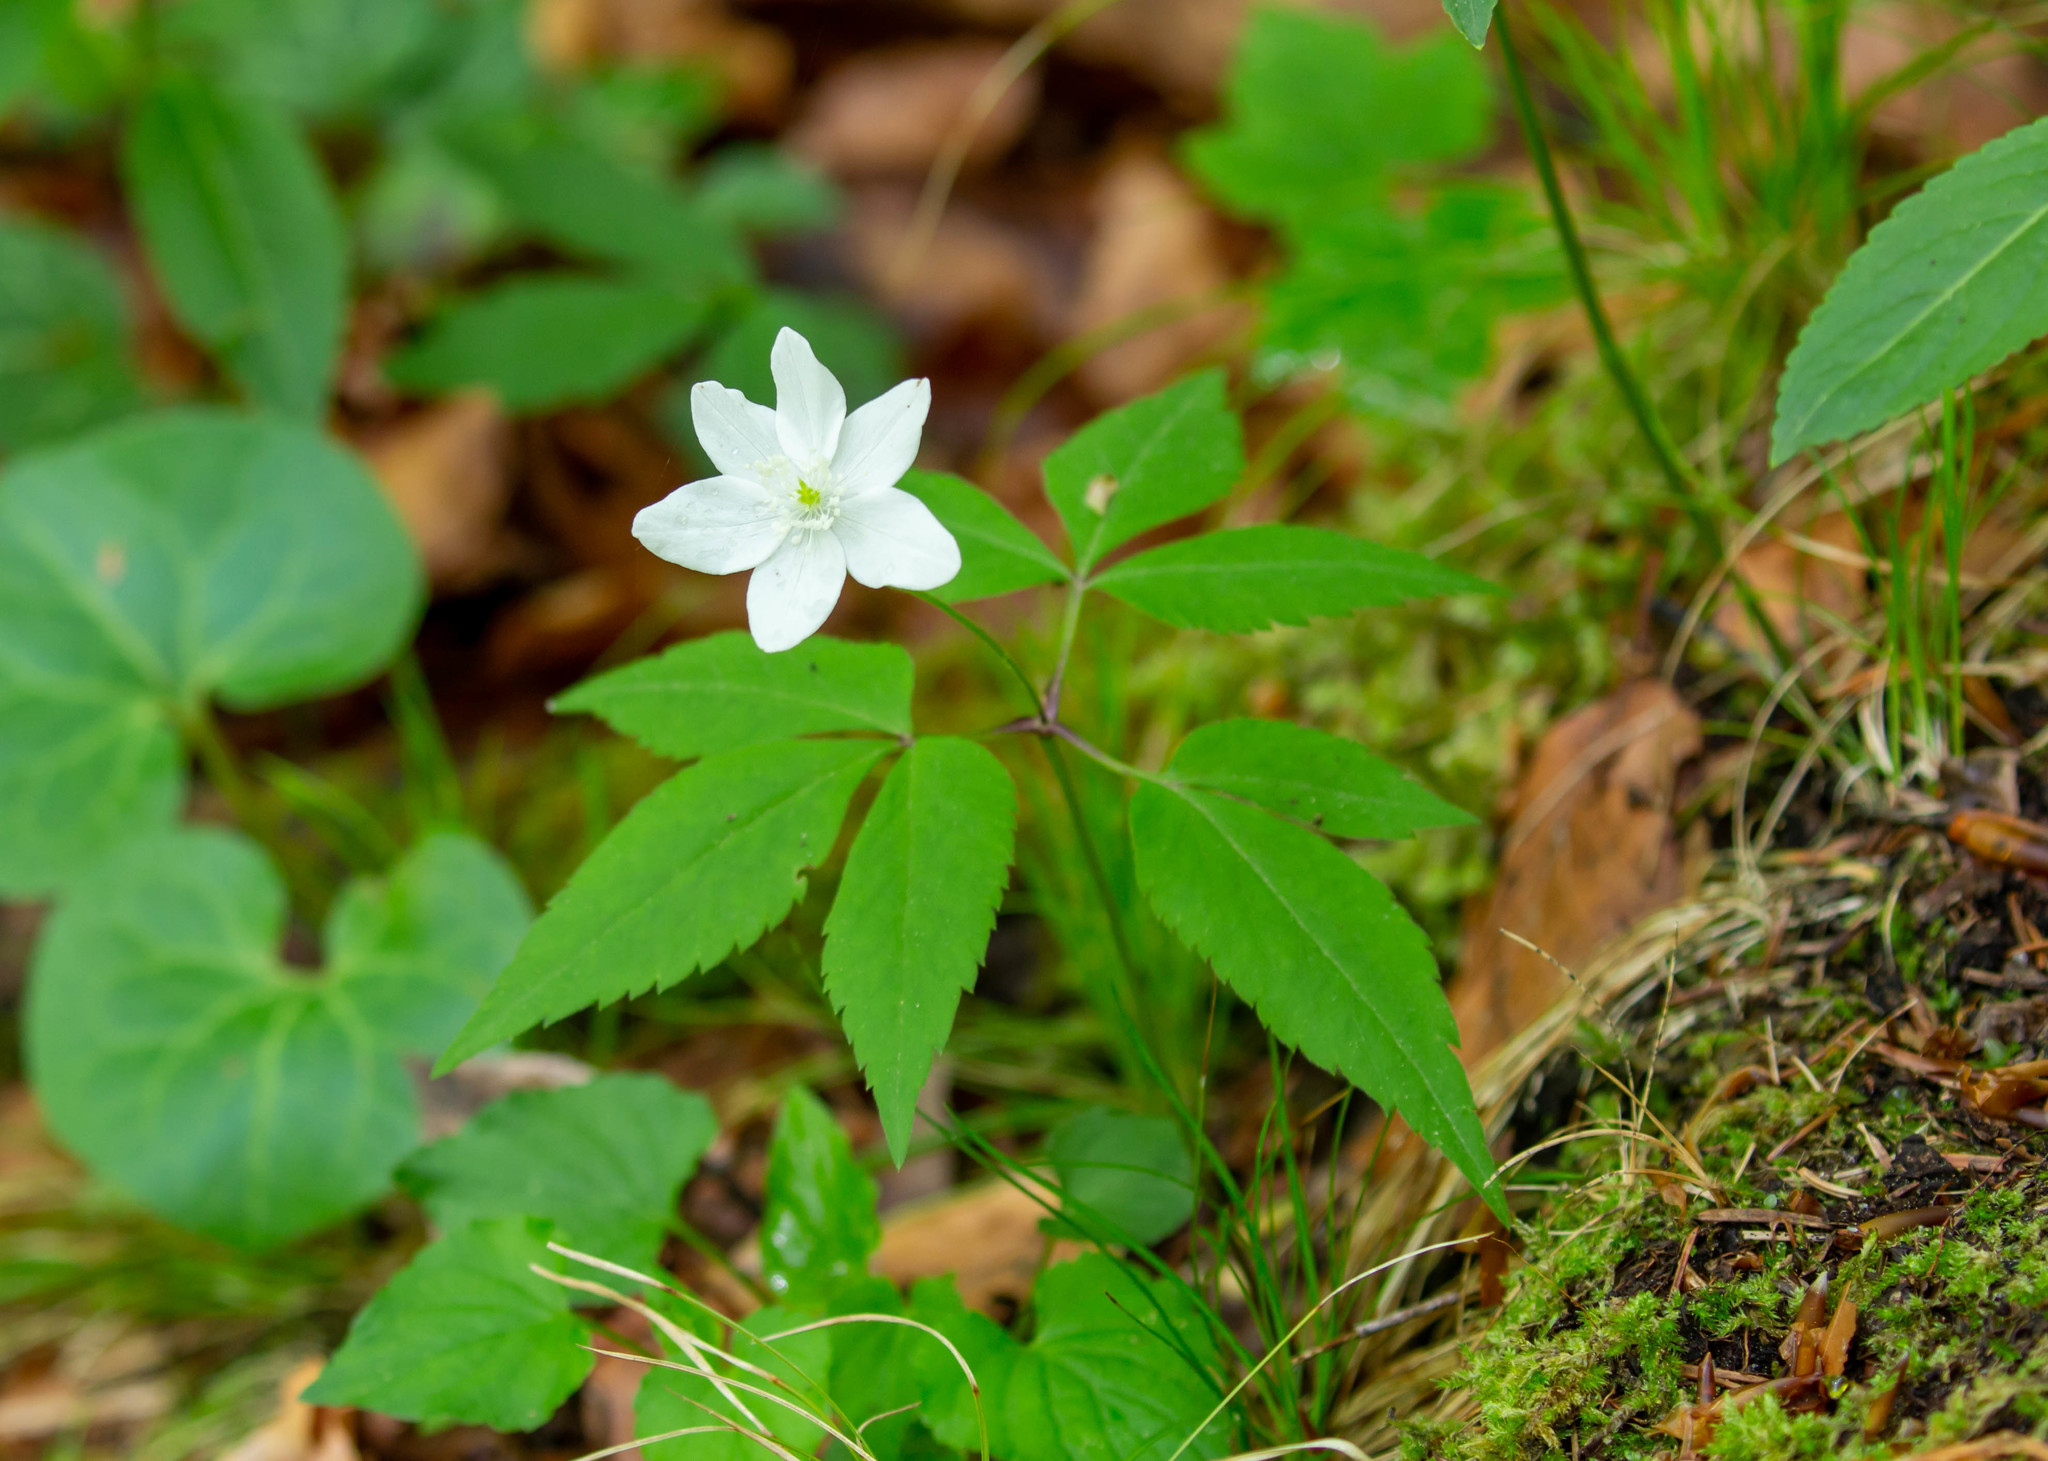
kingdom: Plantae
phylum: Tracheophyta
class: Magnoliopsida
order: Ranunculales
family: Ranunculaceae
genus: Anemone
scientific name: Anemone trifolia
